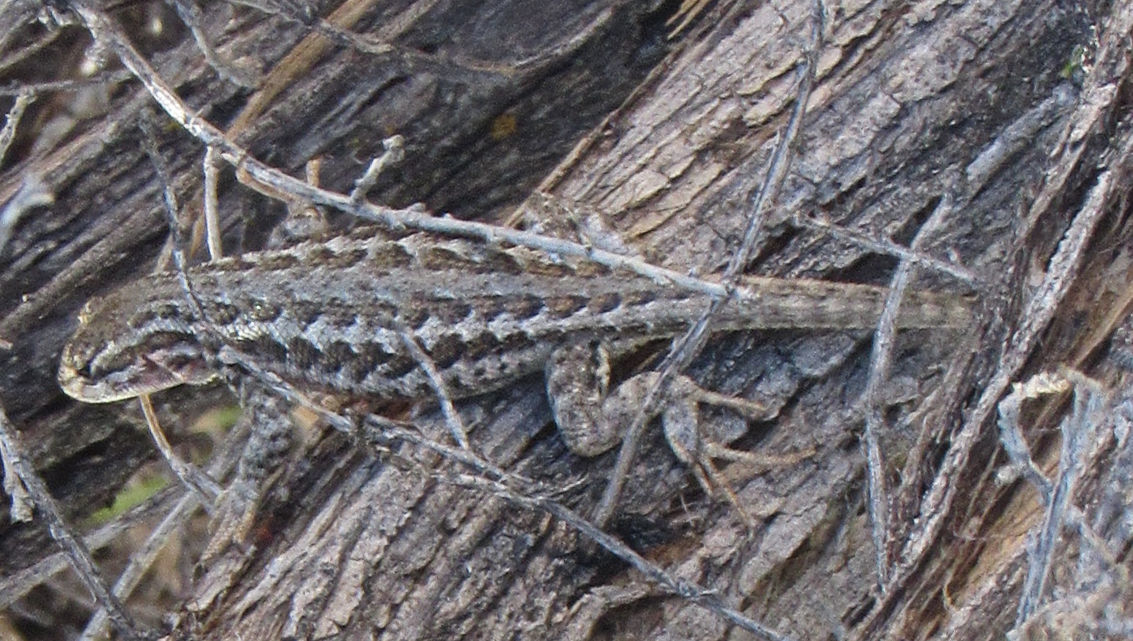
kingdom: Animalia
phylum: Chordata
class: Squamata
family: Phrynosomatidae
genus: Sceloporus
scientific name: Sceloporus graciosus
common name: Sagebrush lizard
